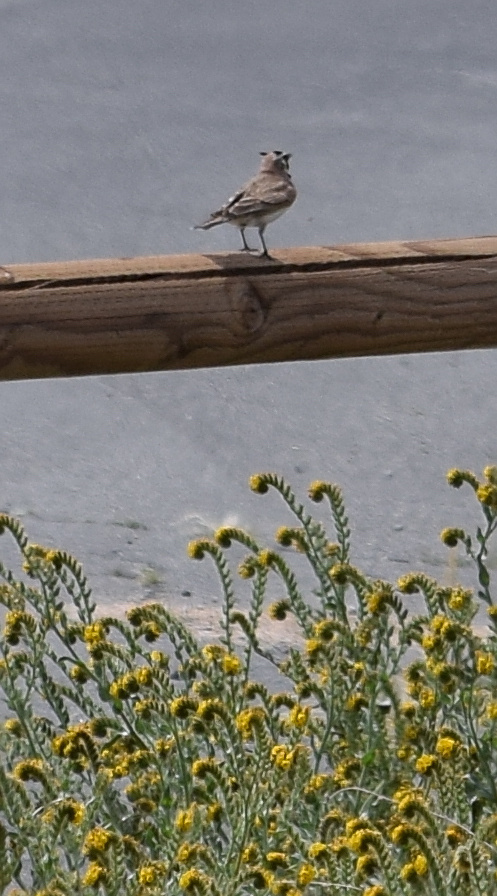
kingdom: Animalia
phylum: Chordata
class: Aves
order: Passeriformes
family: Alaudidae
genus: Eremophila
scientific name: Eremophila alpestris
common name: Horned lark
